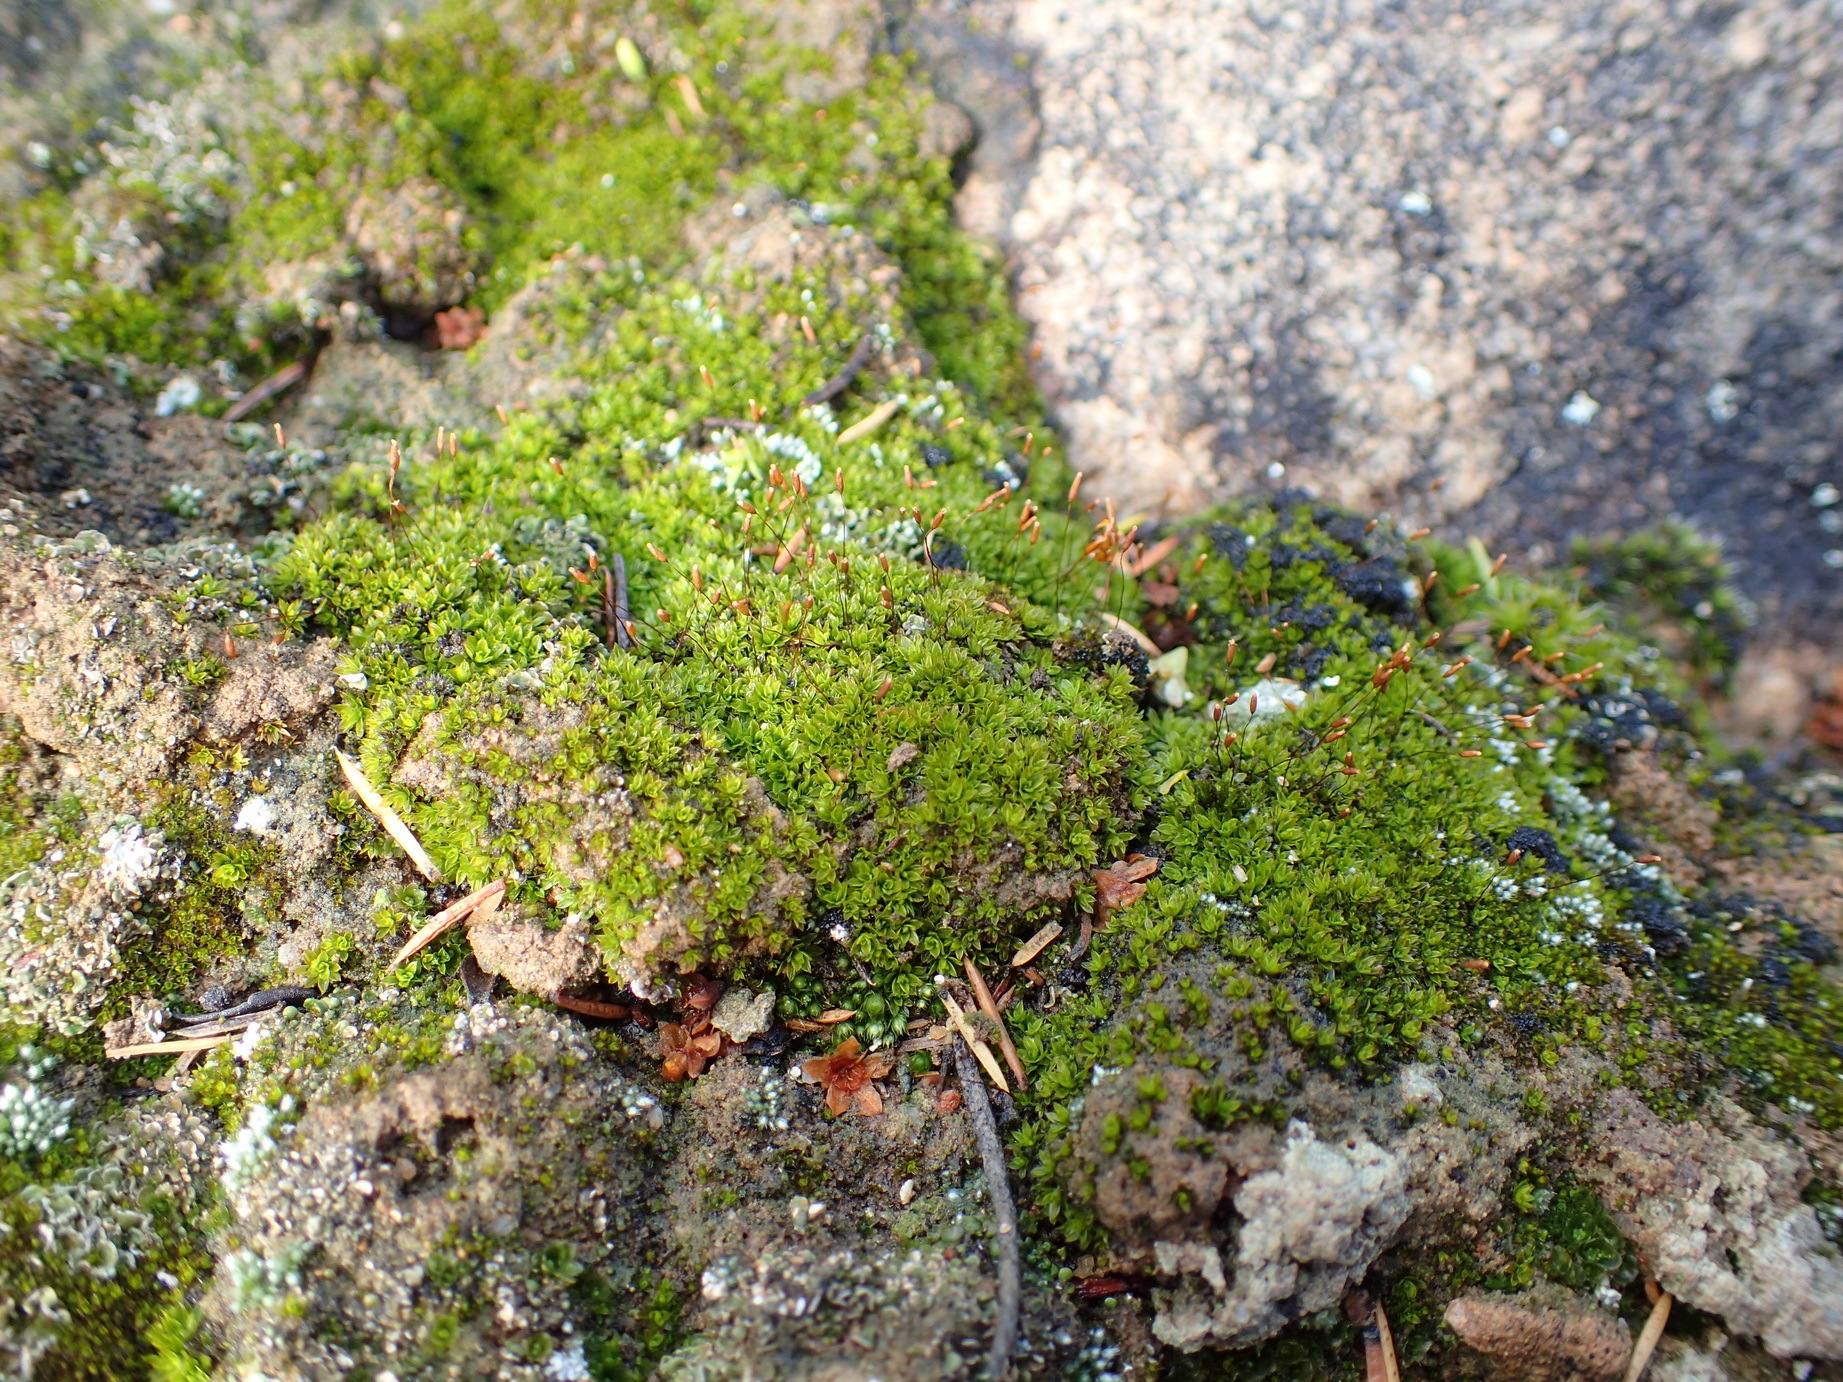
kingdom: Plantae
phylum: Bryophyta
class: Bryopsida
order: Pottiales
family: Pottiaceae
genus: Tortula
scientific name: Tortula atrovirens
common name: Rib-leaf moss
